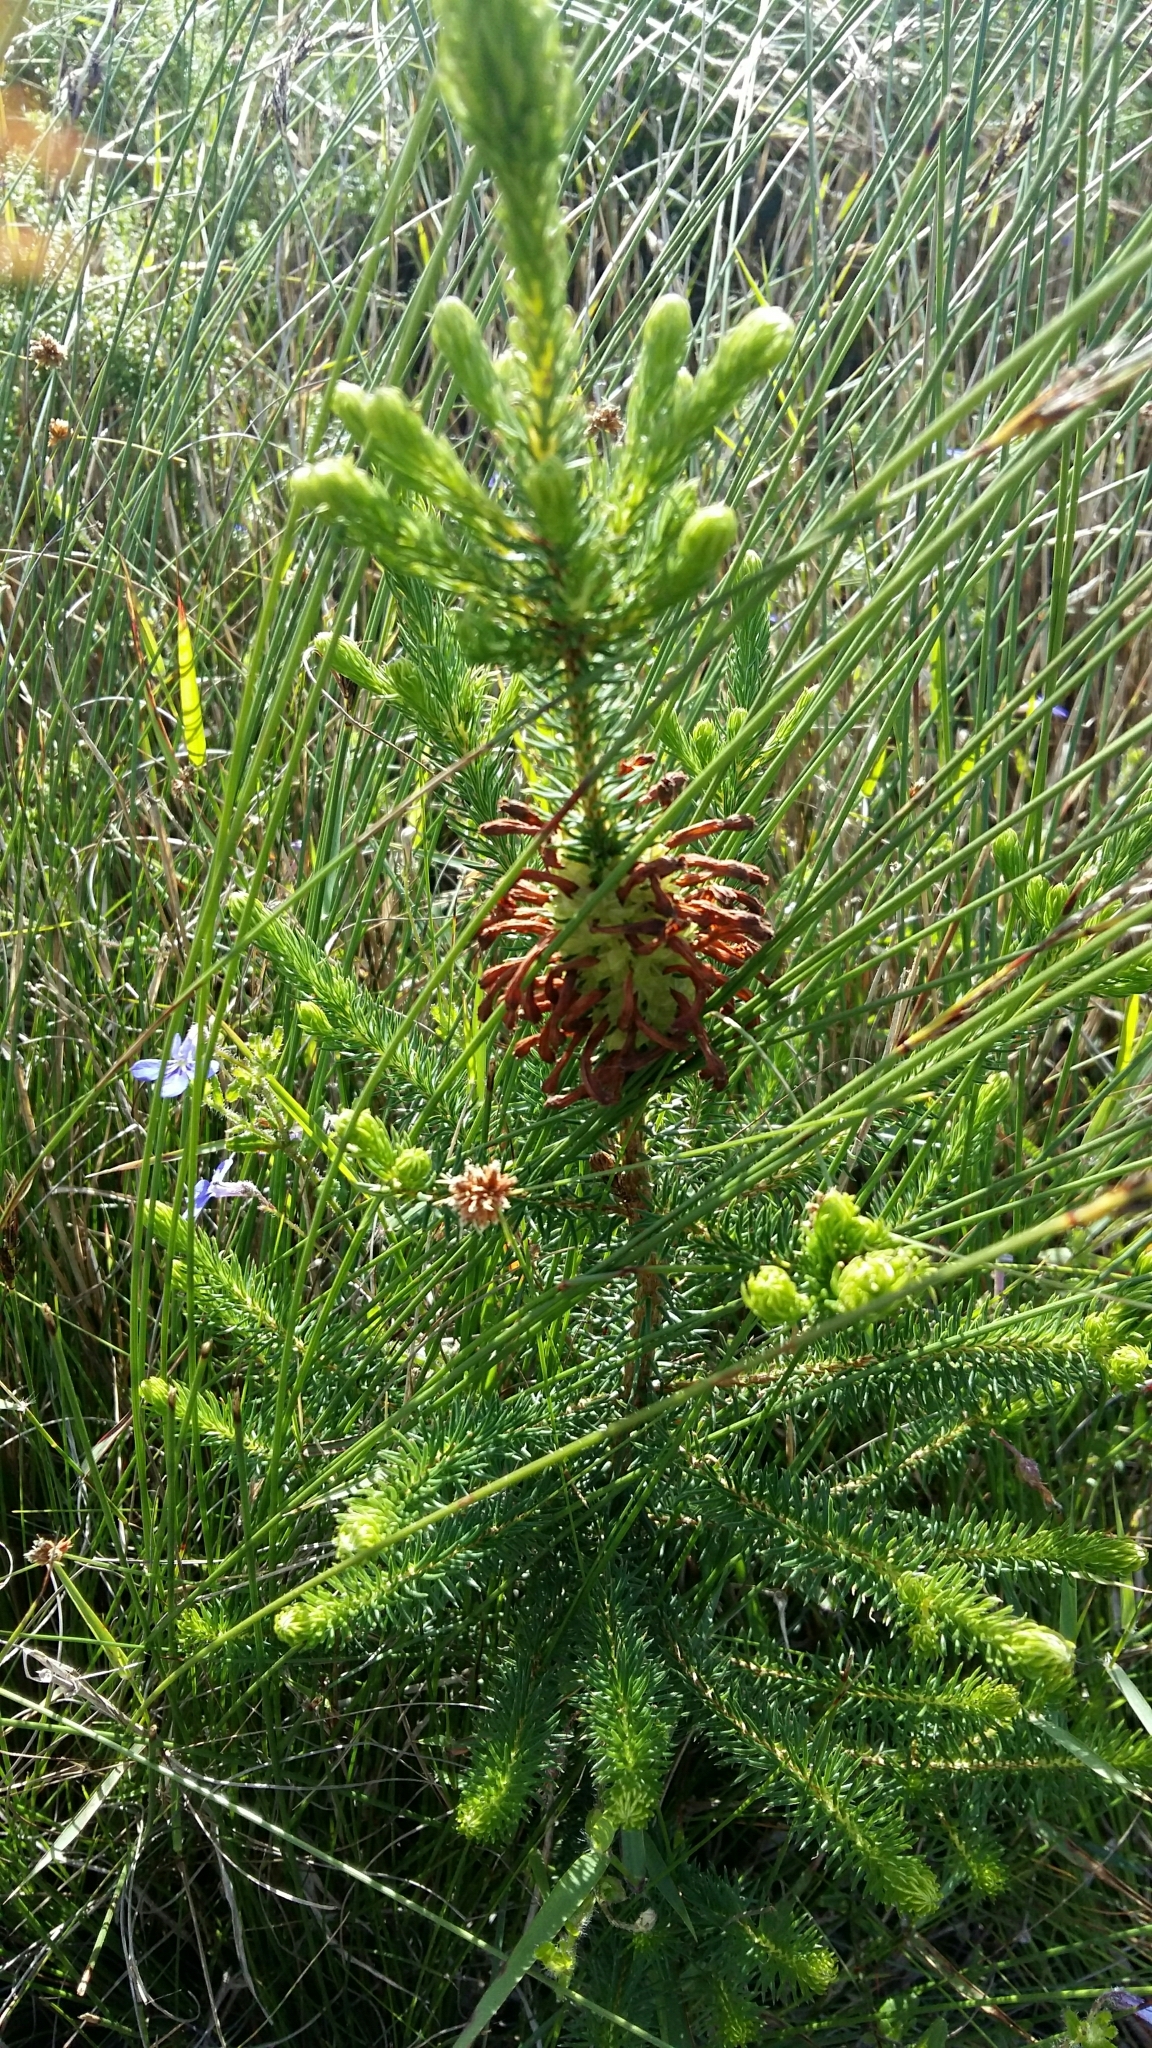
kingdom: Plantae
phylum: Tracheophyta
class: Magnoliopsida
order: Ericales
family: Ericaceae
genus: Erica
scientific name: Erica sessiliflora
